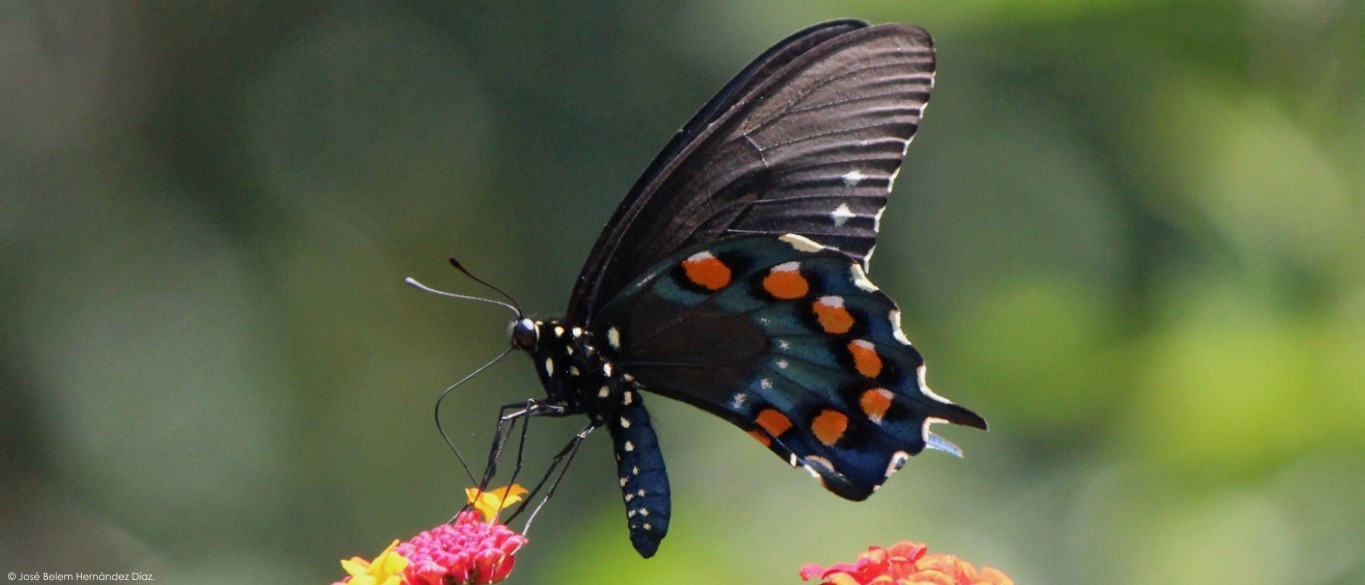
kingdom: Animalia
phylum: Arthropoda
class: Insecta
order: Lepidoptera
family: Papilionidae
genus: Battus
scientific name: Battus philenor
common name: Pipevine swallowtail
